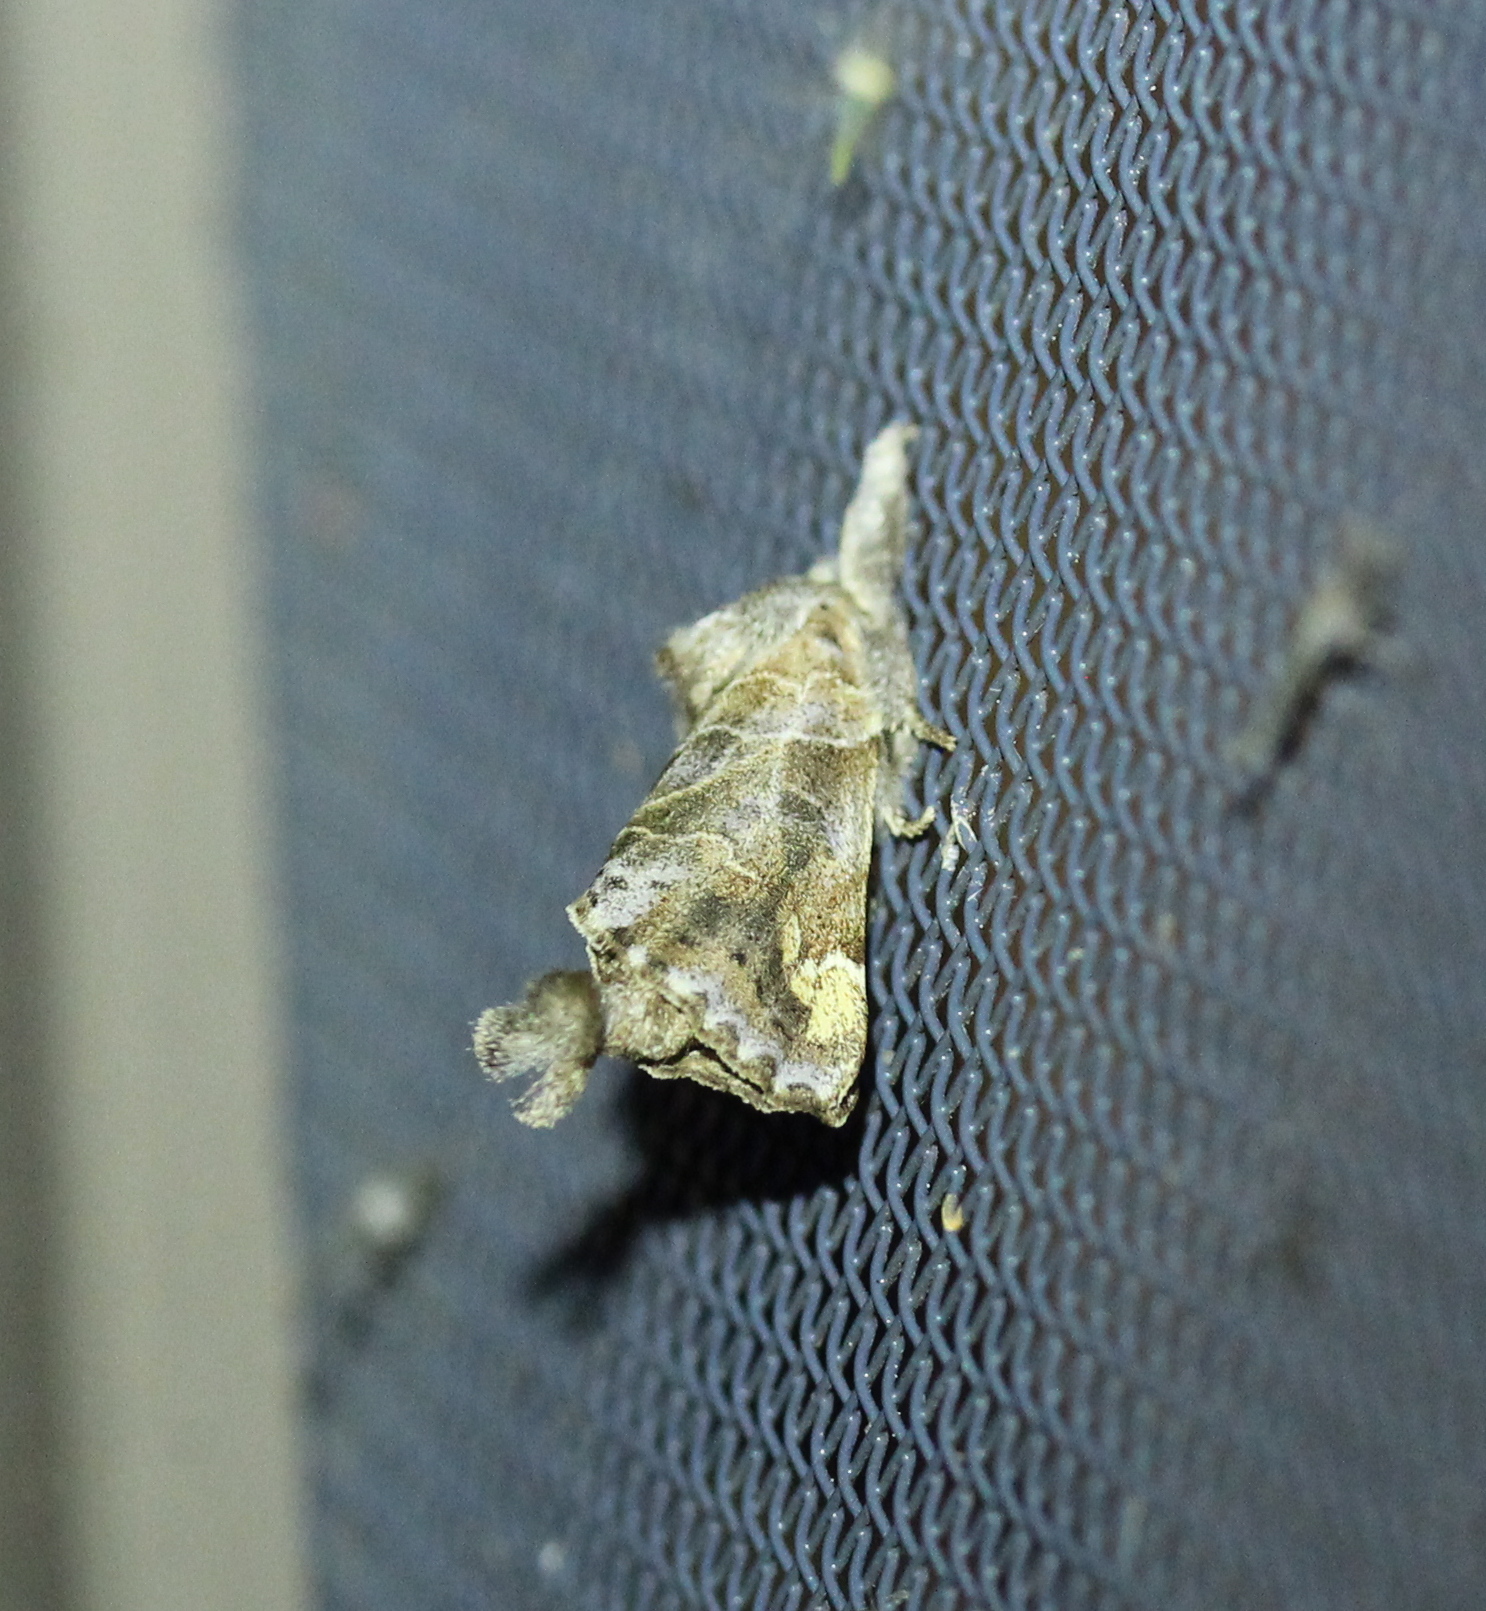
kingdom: Animalia
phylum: Arthropoda
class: Insecta
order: Lepidoptera
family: Notodontidae
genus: Clostera
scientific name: Clostera strigosa
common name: Striped chocolate-tip moth
